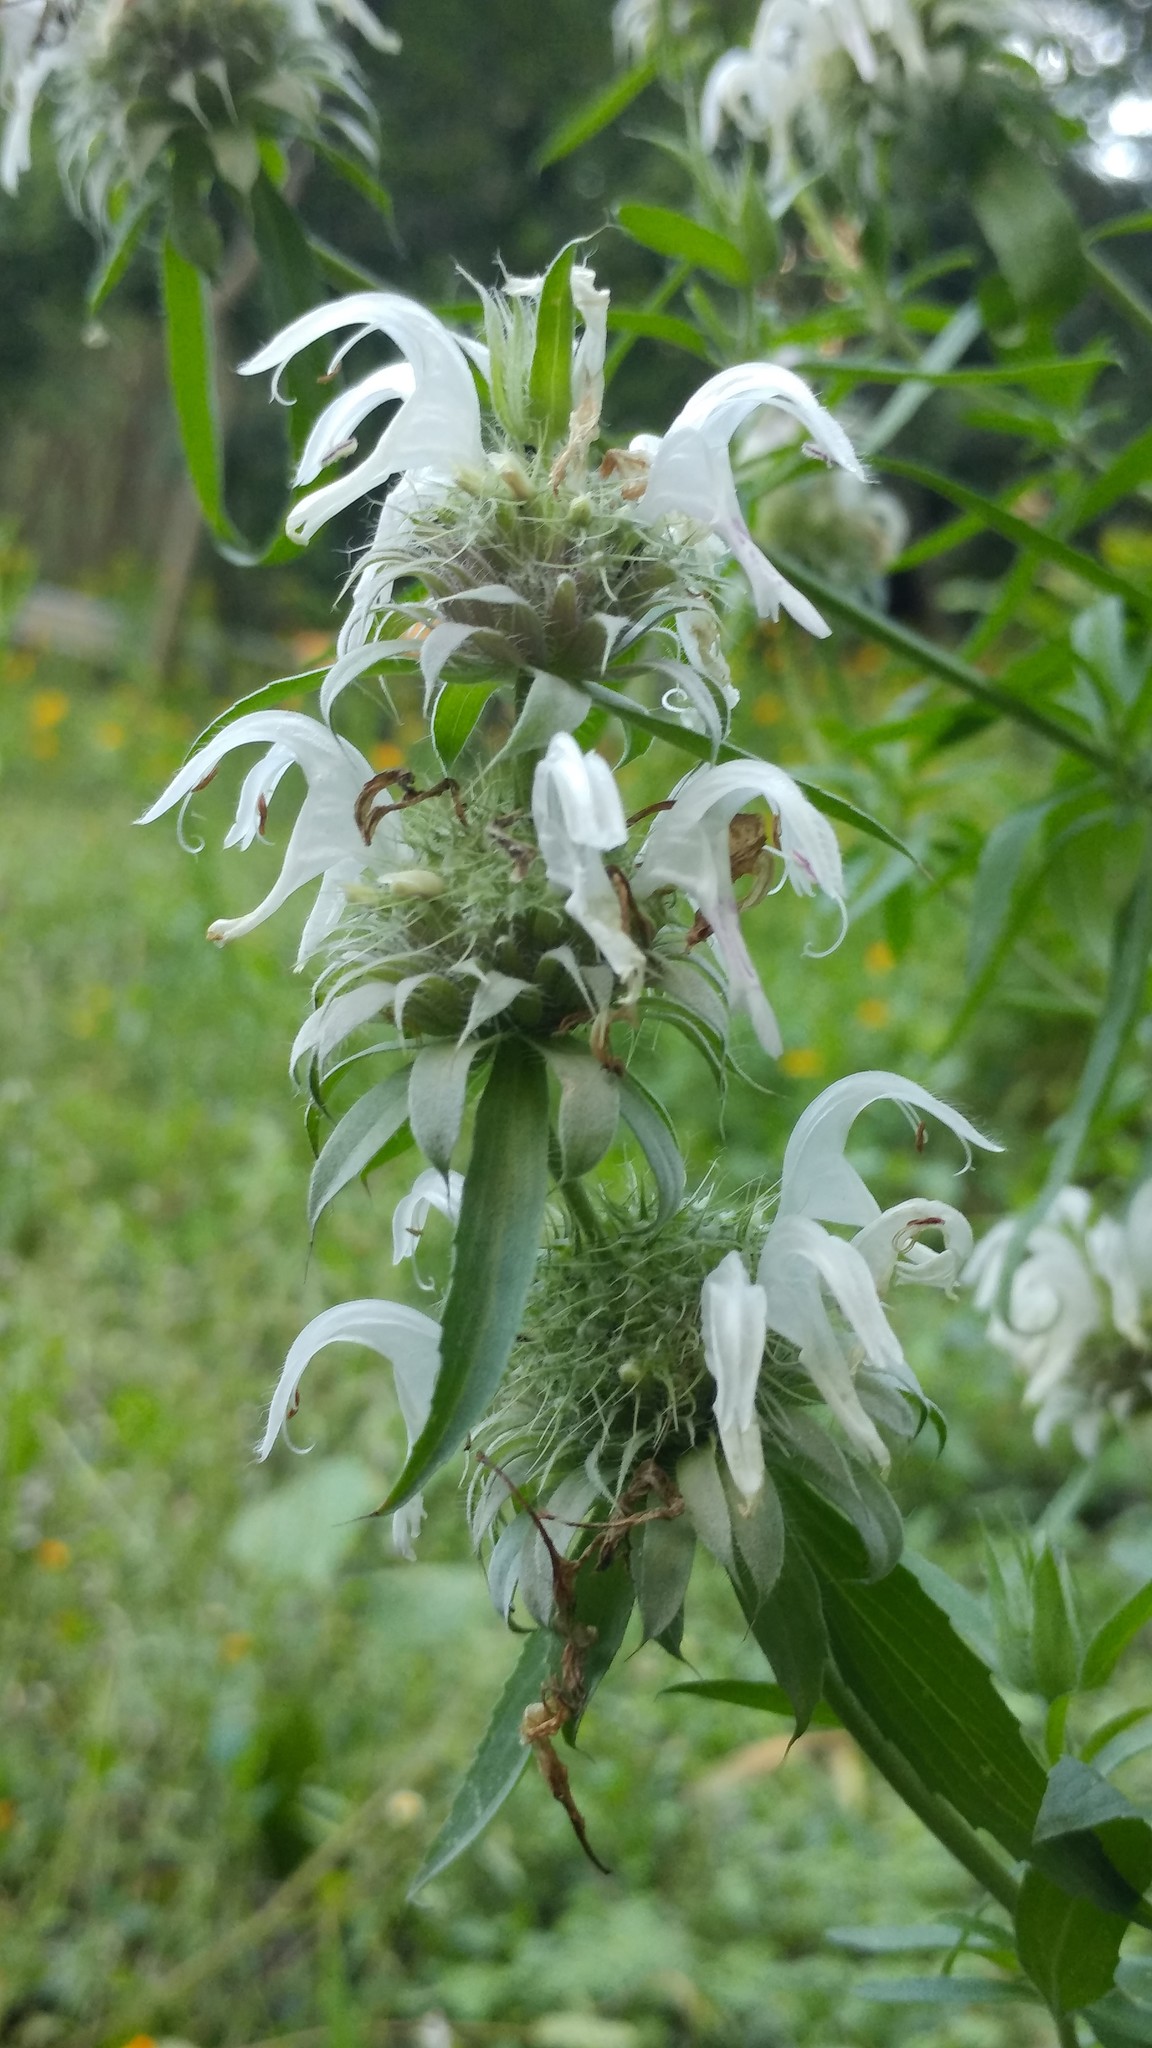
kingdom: Plantae
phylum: Tracheophyta
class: Magnoliopsida
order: Lamiales
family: Lamiaceae
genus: Monarda
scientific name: Monarda citriodora
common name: Lemon beebalm
